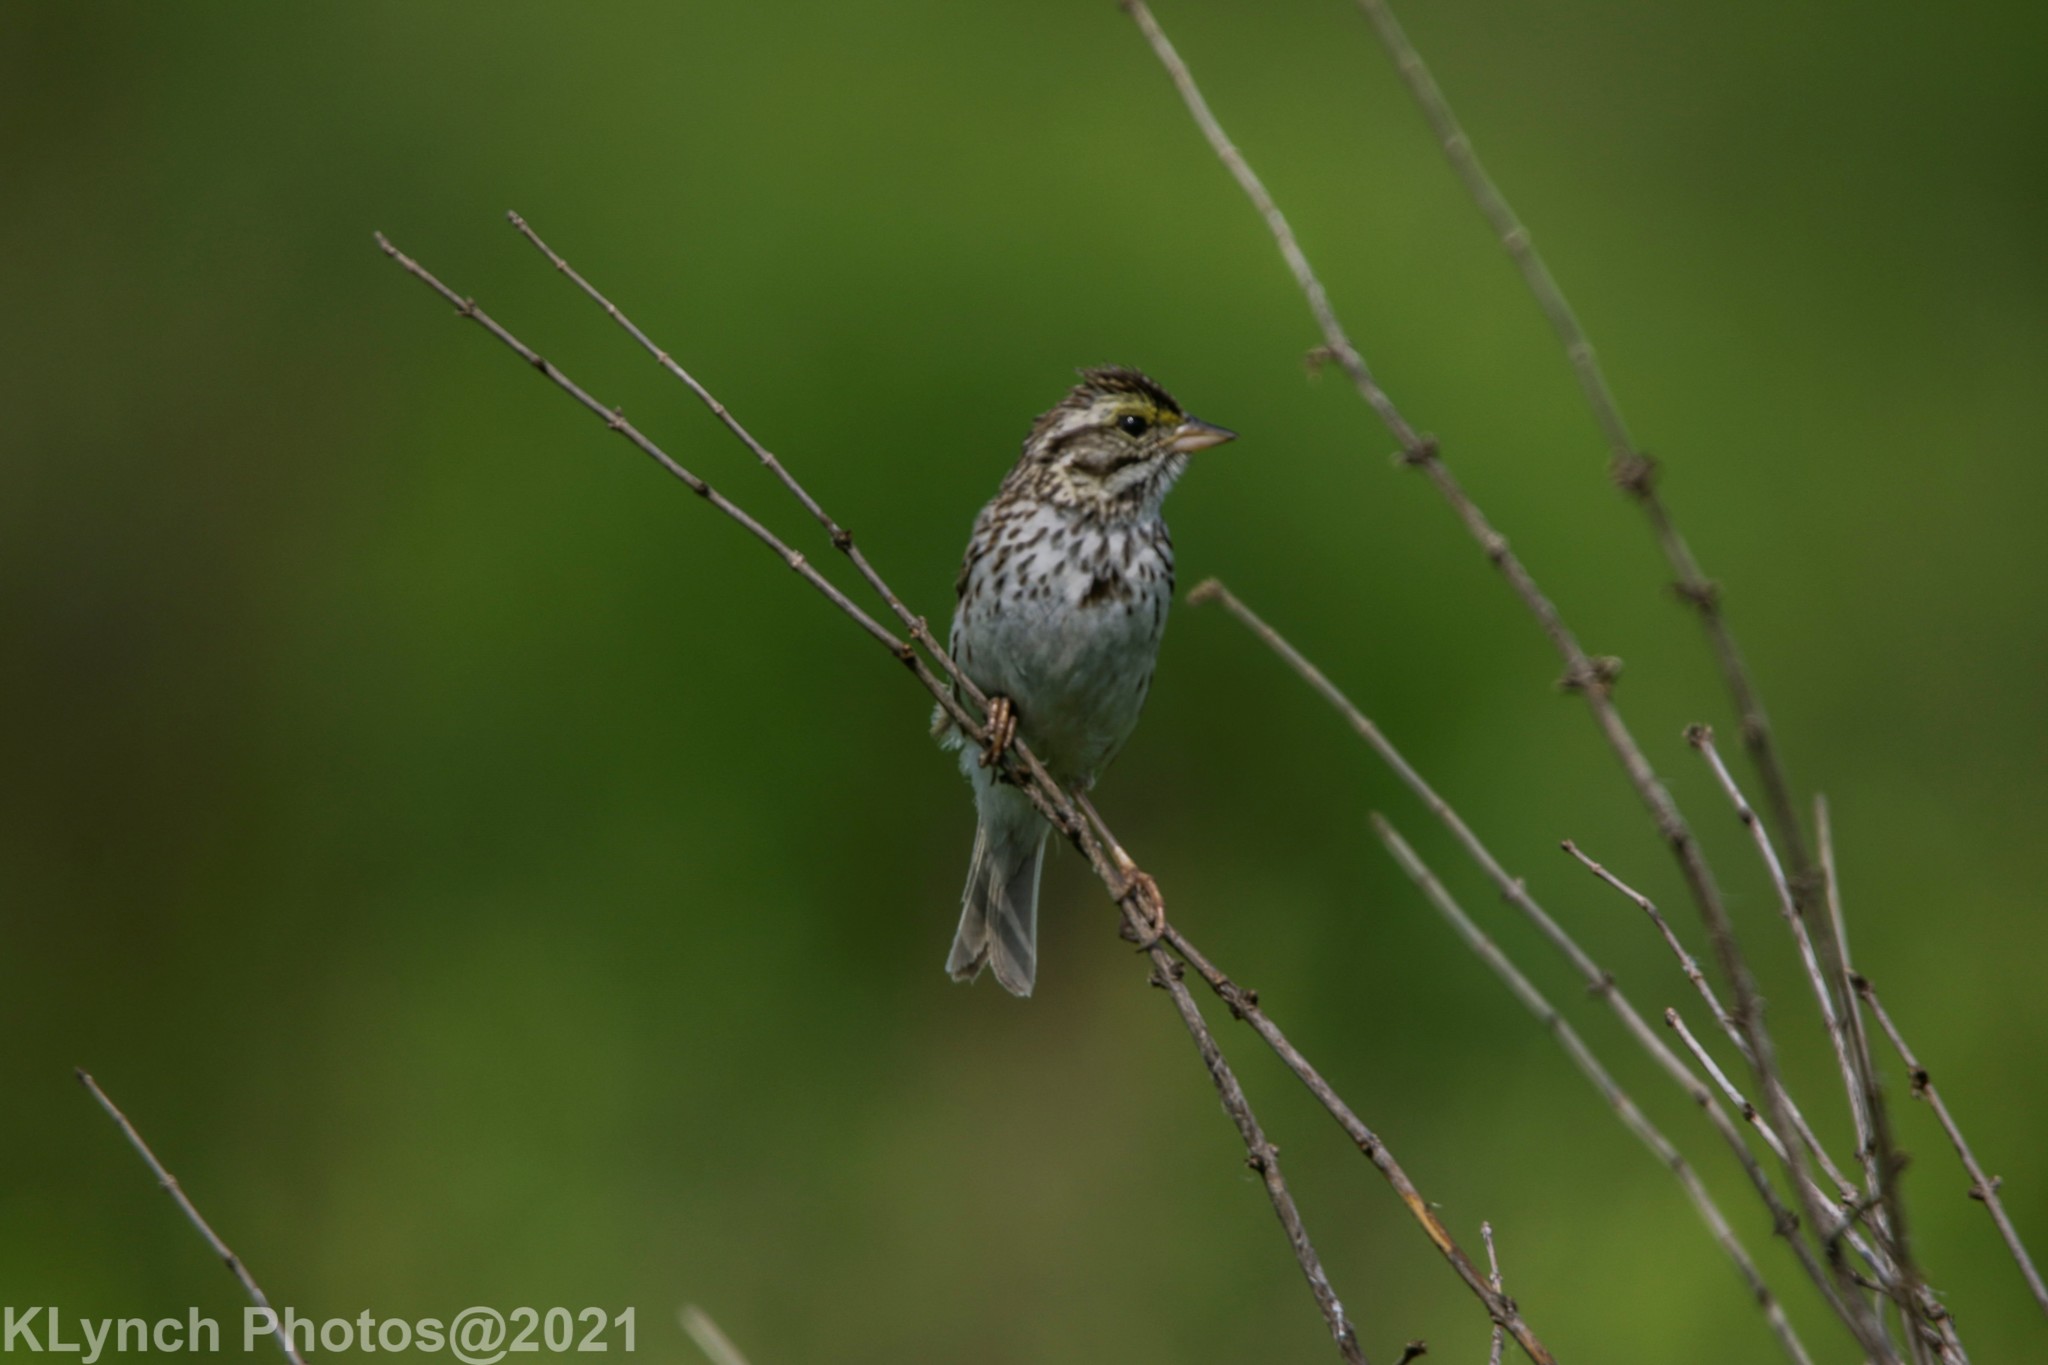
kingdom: Animalia
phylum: Chordata
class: Aves
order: Passeriformes
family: Passerellidae
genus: Passerculus
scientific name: Passerculus sandwichensis
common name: Savannah sparrow
